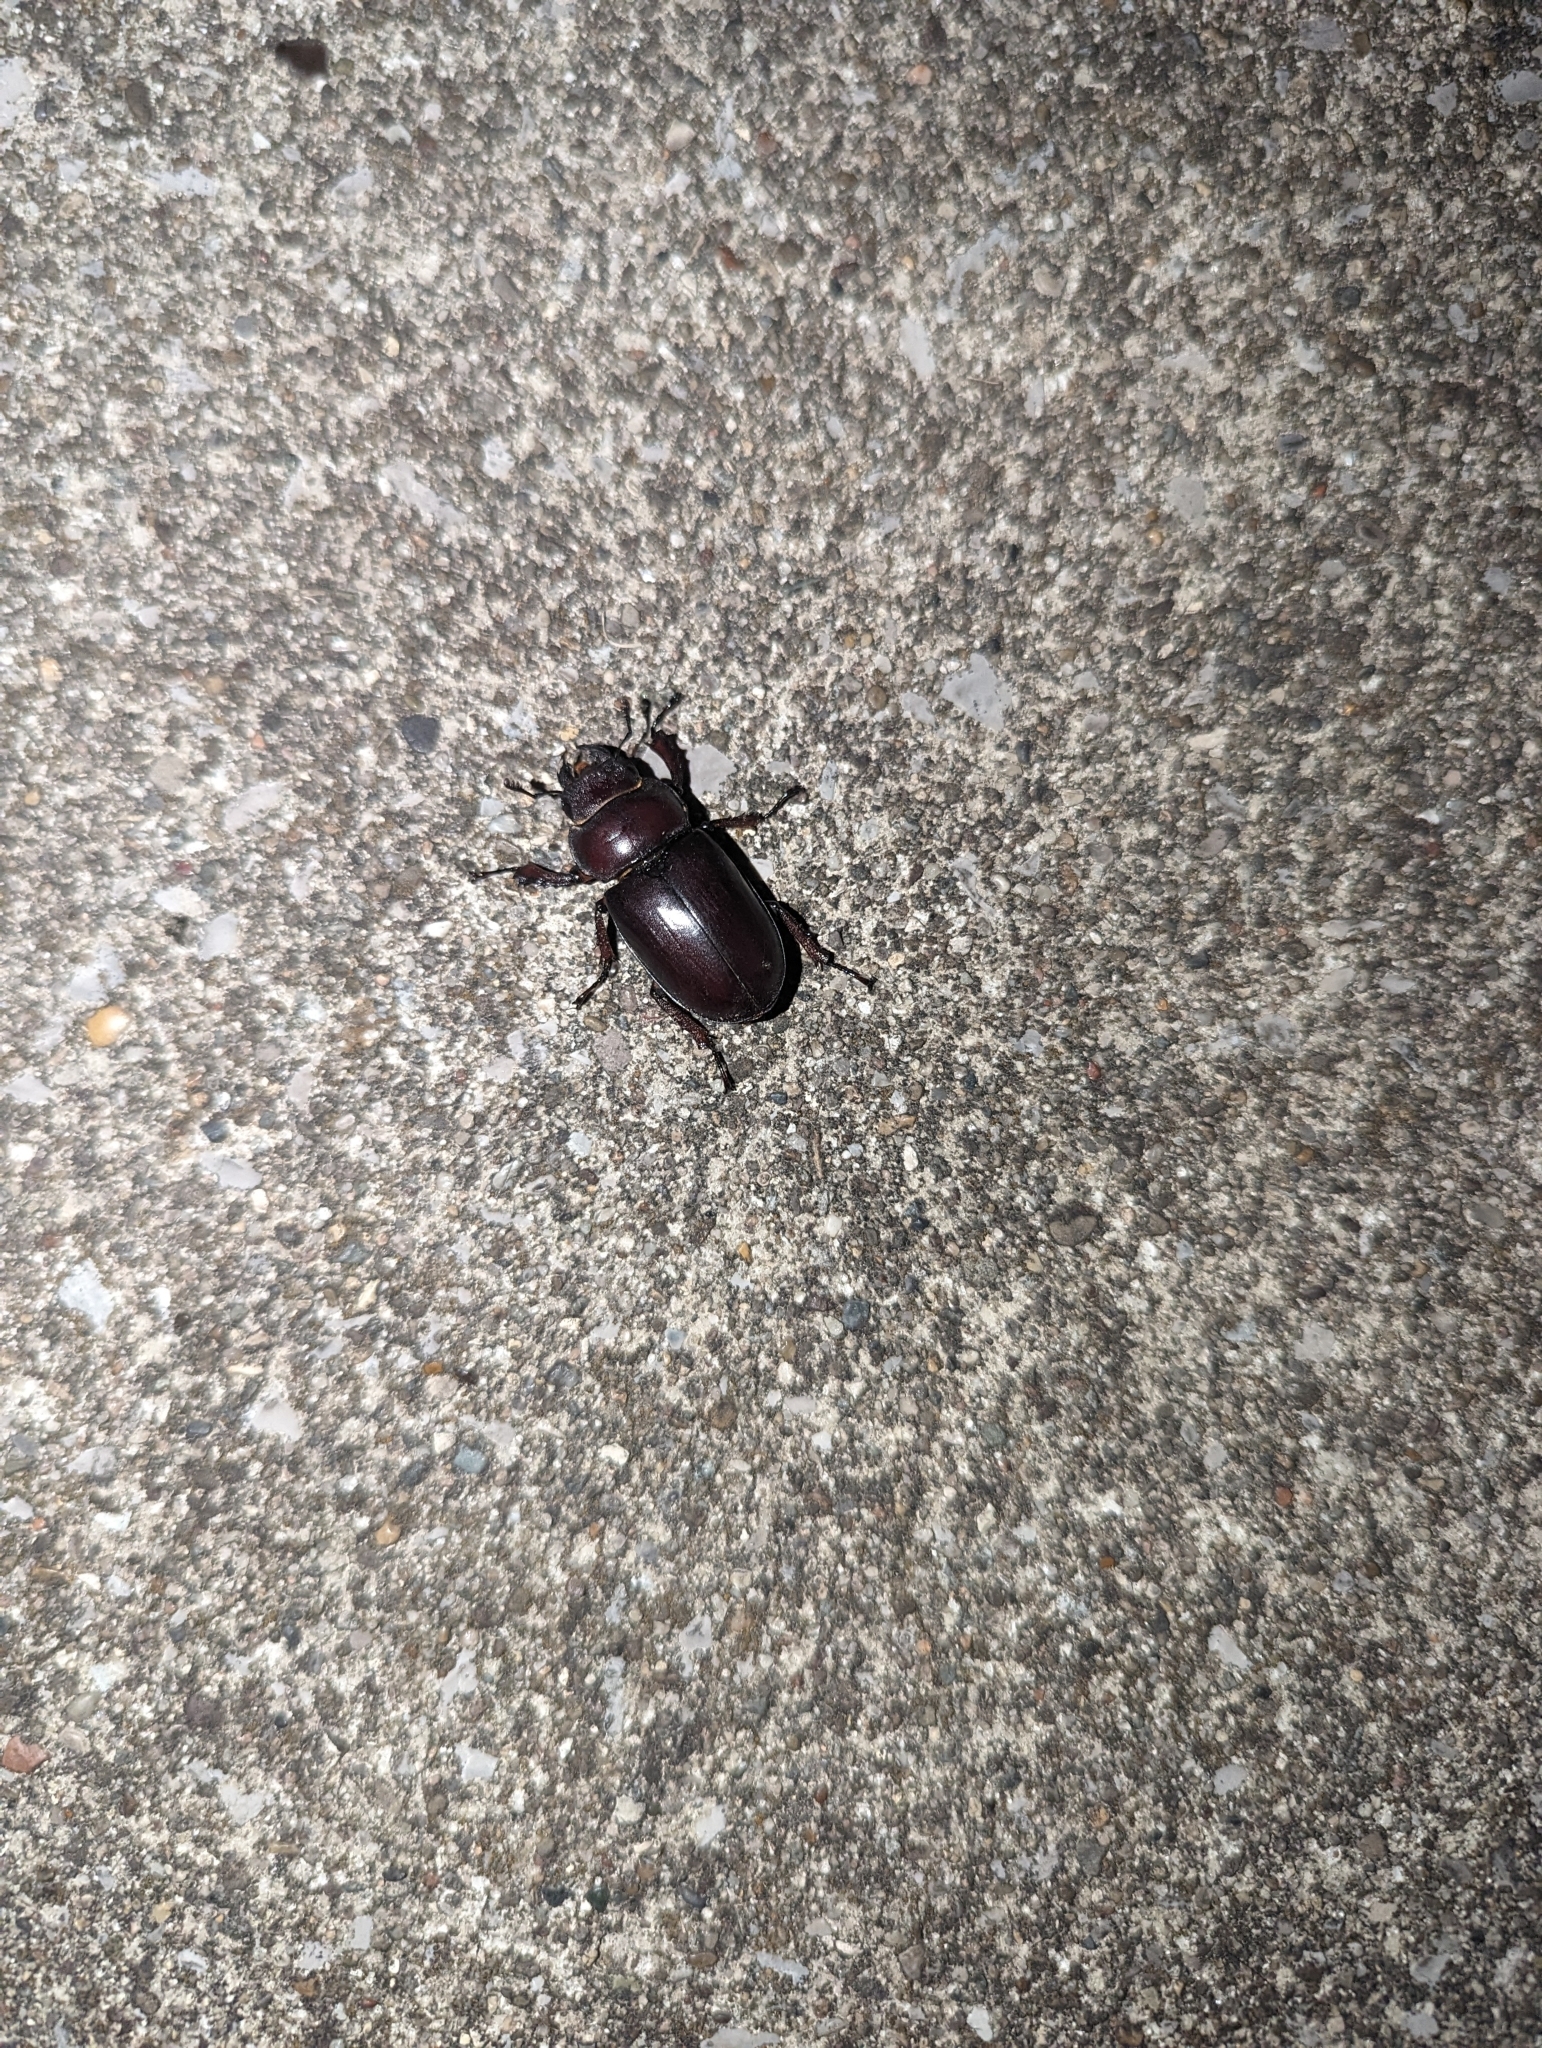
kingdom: Animalia
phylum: Arthropoda
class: Insecta
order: Coleoptera
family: Lucanidae
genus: Lucanus
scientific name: Lucanus capreolus
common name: Stag beetle
